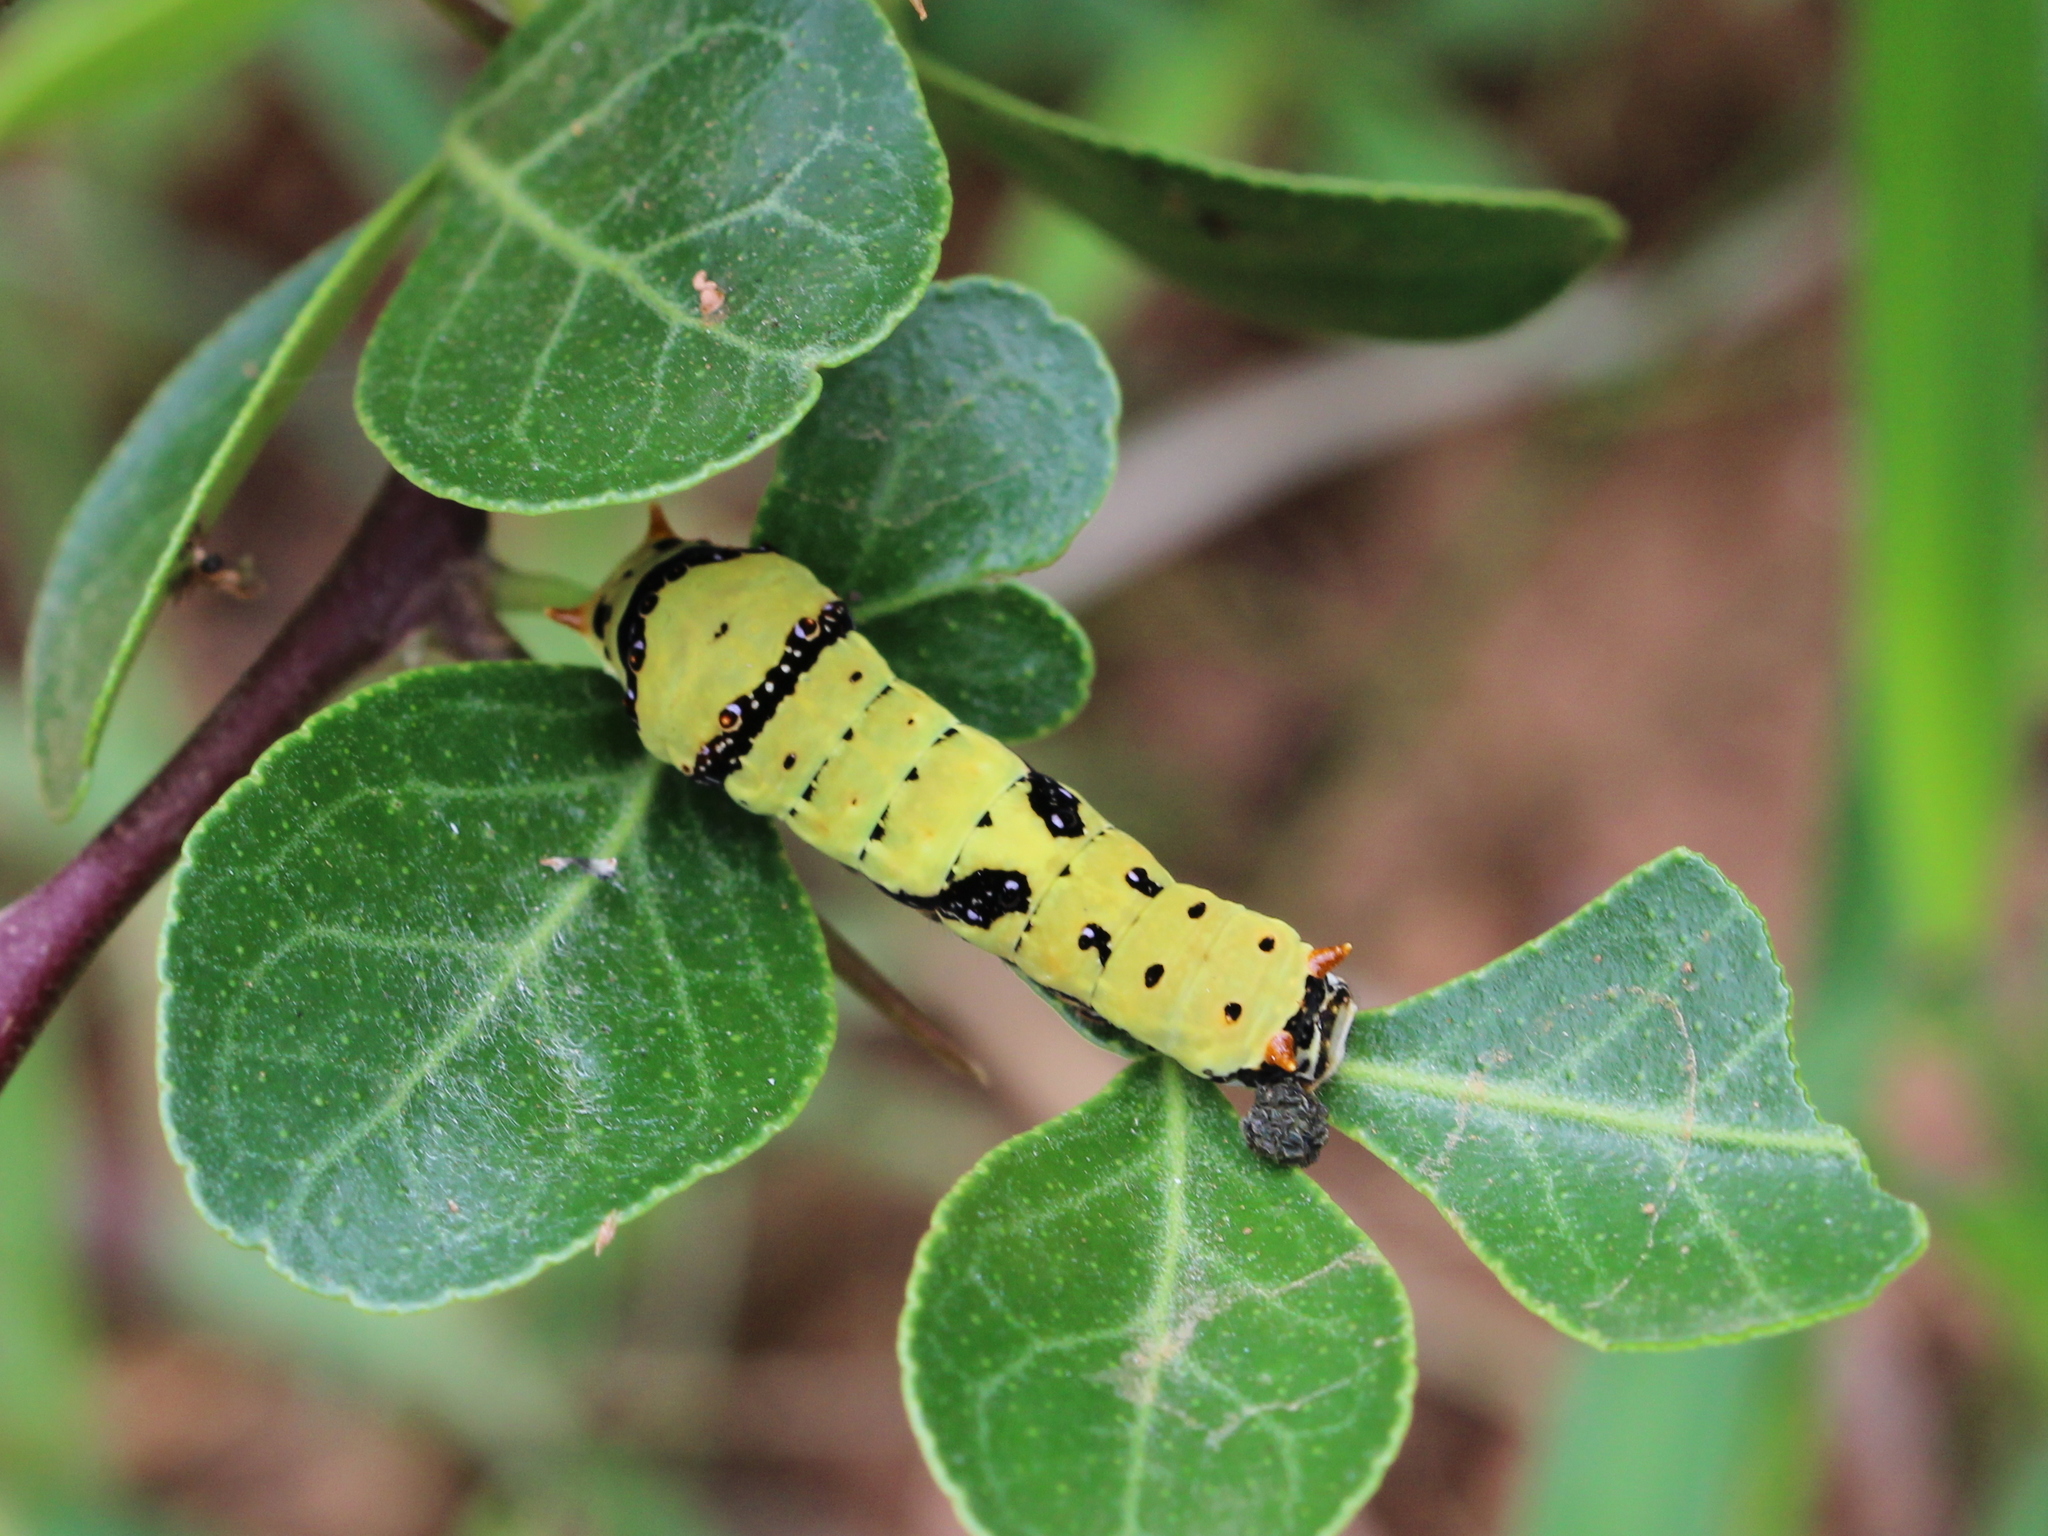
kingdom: Animalia
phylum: Arthropoda
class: Insecta
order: Lepidoptera
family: Papilionidae
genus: Papilio
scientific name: Papilio demoleus
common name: Lime butterfly
